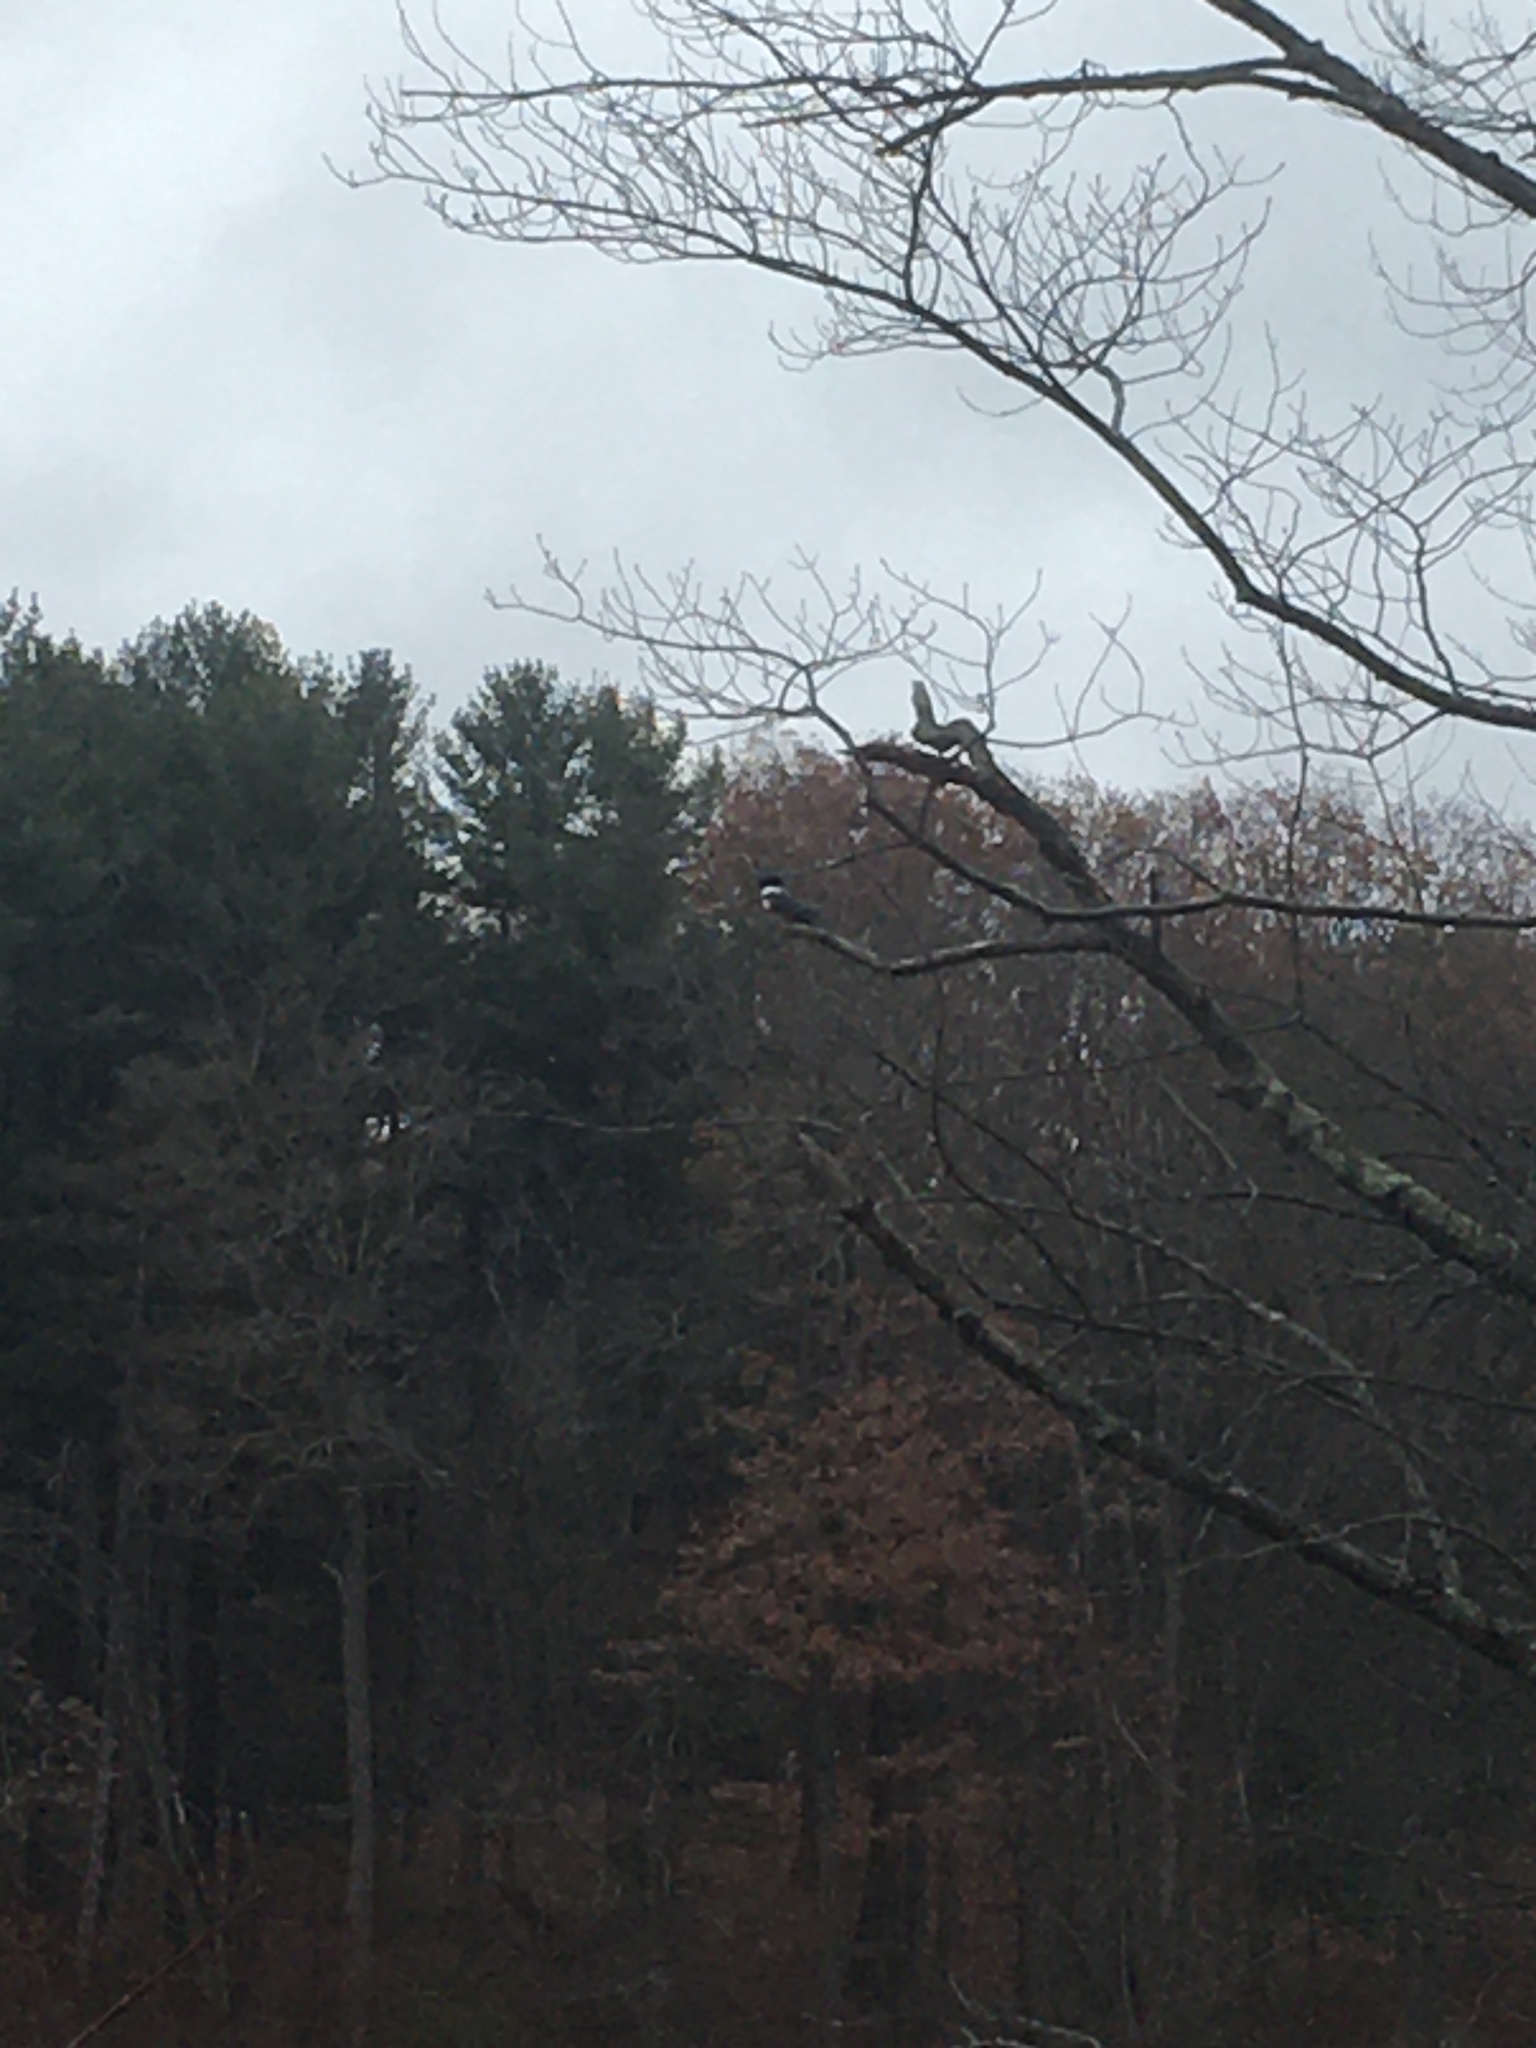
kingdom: Animalia
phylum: Chordata
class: Aves
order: Coraciiformes
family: Alcedinidae
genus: Megaceryle
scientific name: Megaceryle alcyon
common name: Belted kingfisher
